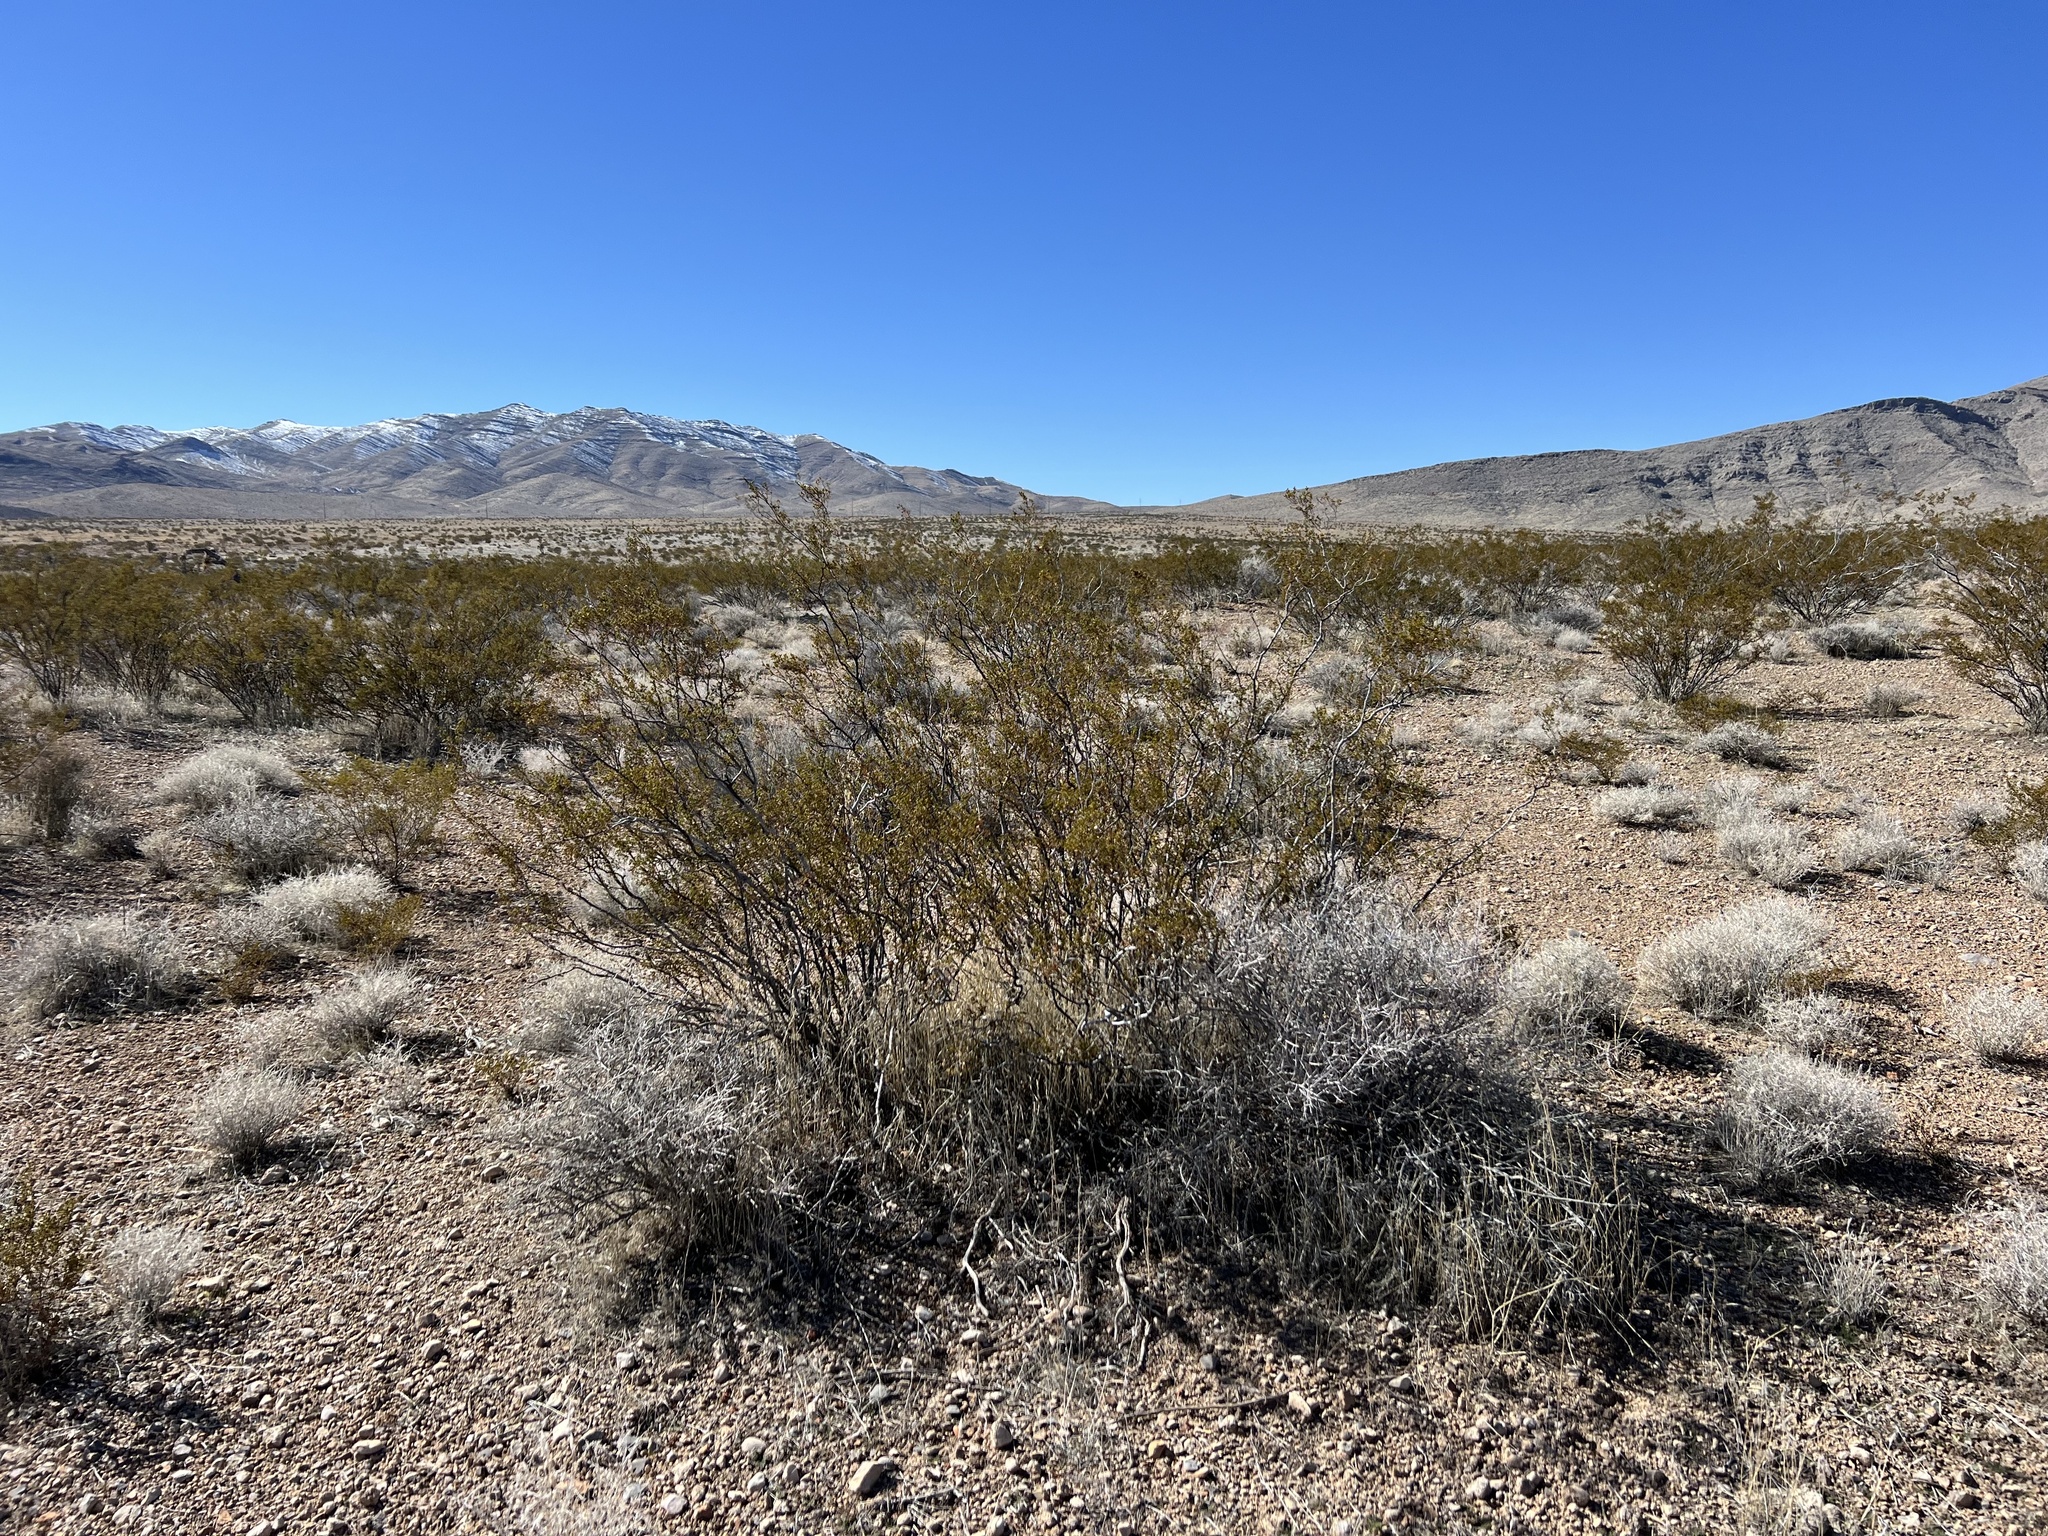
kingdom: Plantae
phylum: Tracheophyta
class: Magnoliopsida
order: Zygophyllales
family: Zygophyllaceae
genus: Larrea
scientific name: Larrea tridentata
